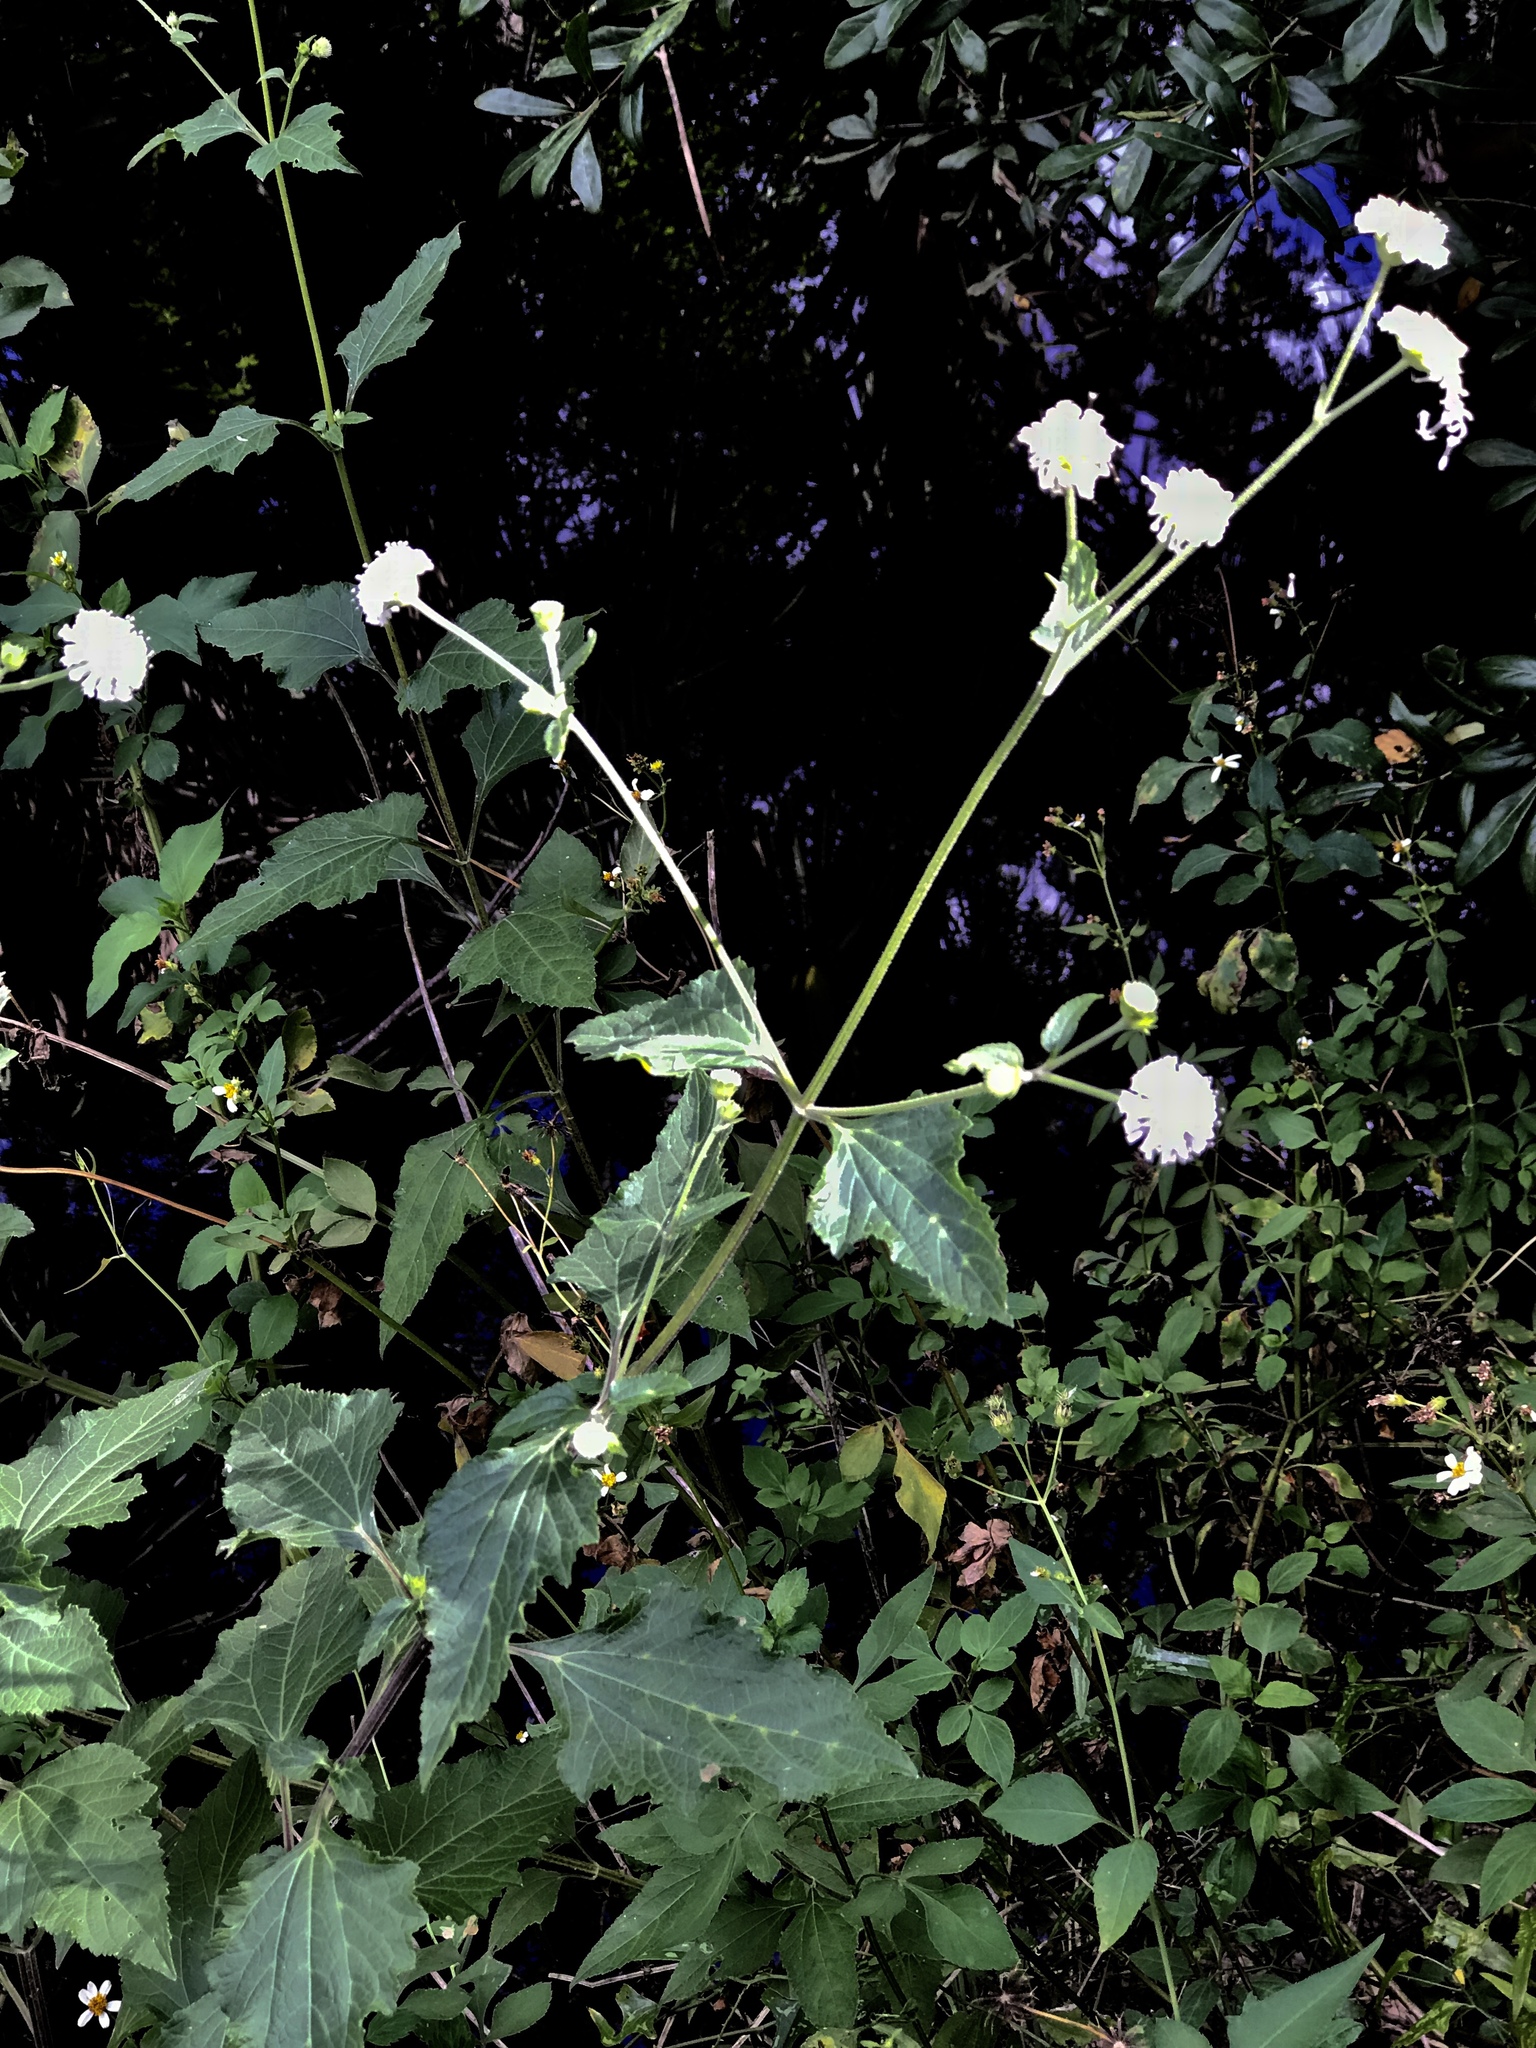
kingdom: Plantae
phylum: Tracheophyta
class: Magnoliopsida
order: Asterales
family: Asteraceae
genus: Melanthera
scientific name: Melanthera nivea
